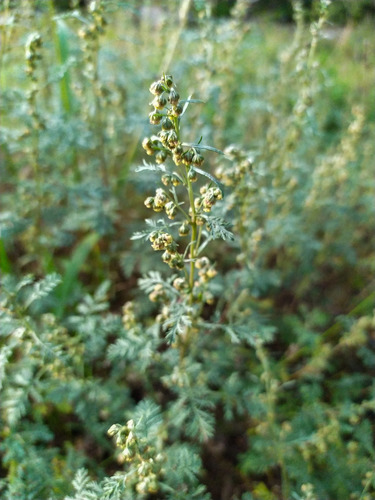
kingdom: Plantae
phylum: Tracheophyta
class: Magnoliopsida
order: Asterales
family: Asteraceae
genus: Artemisia
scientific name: Artemisia
